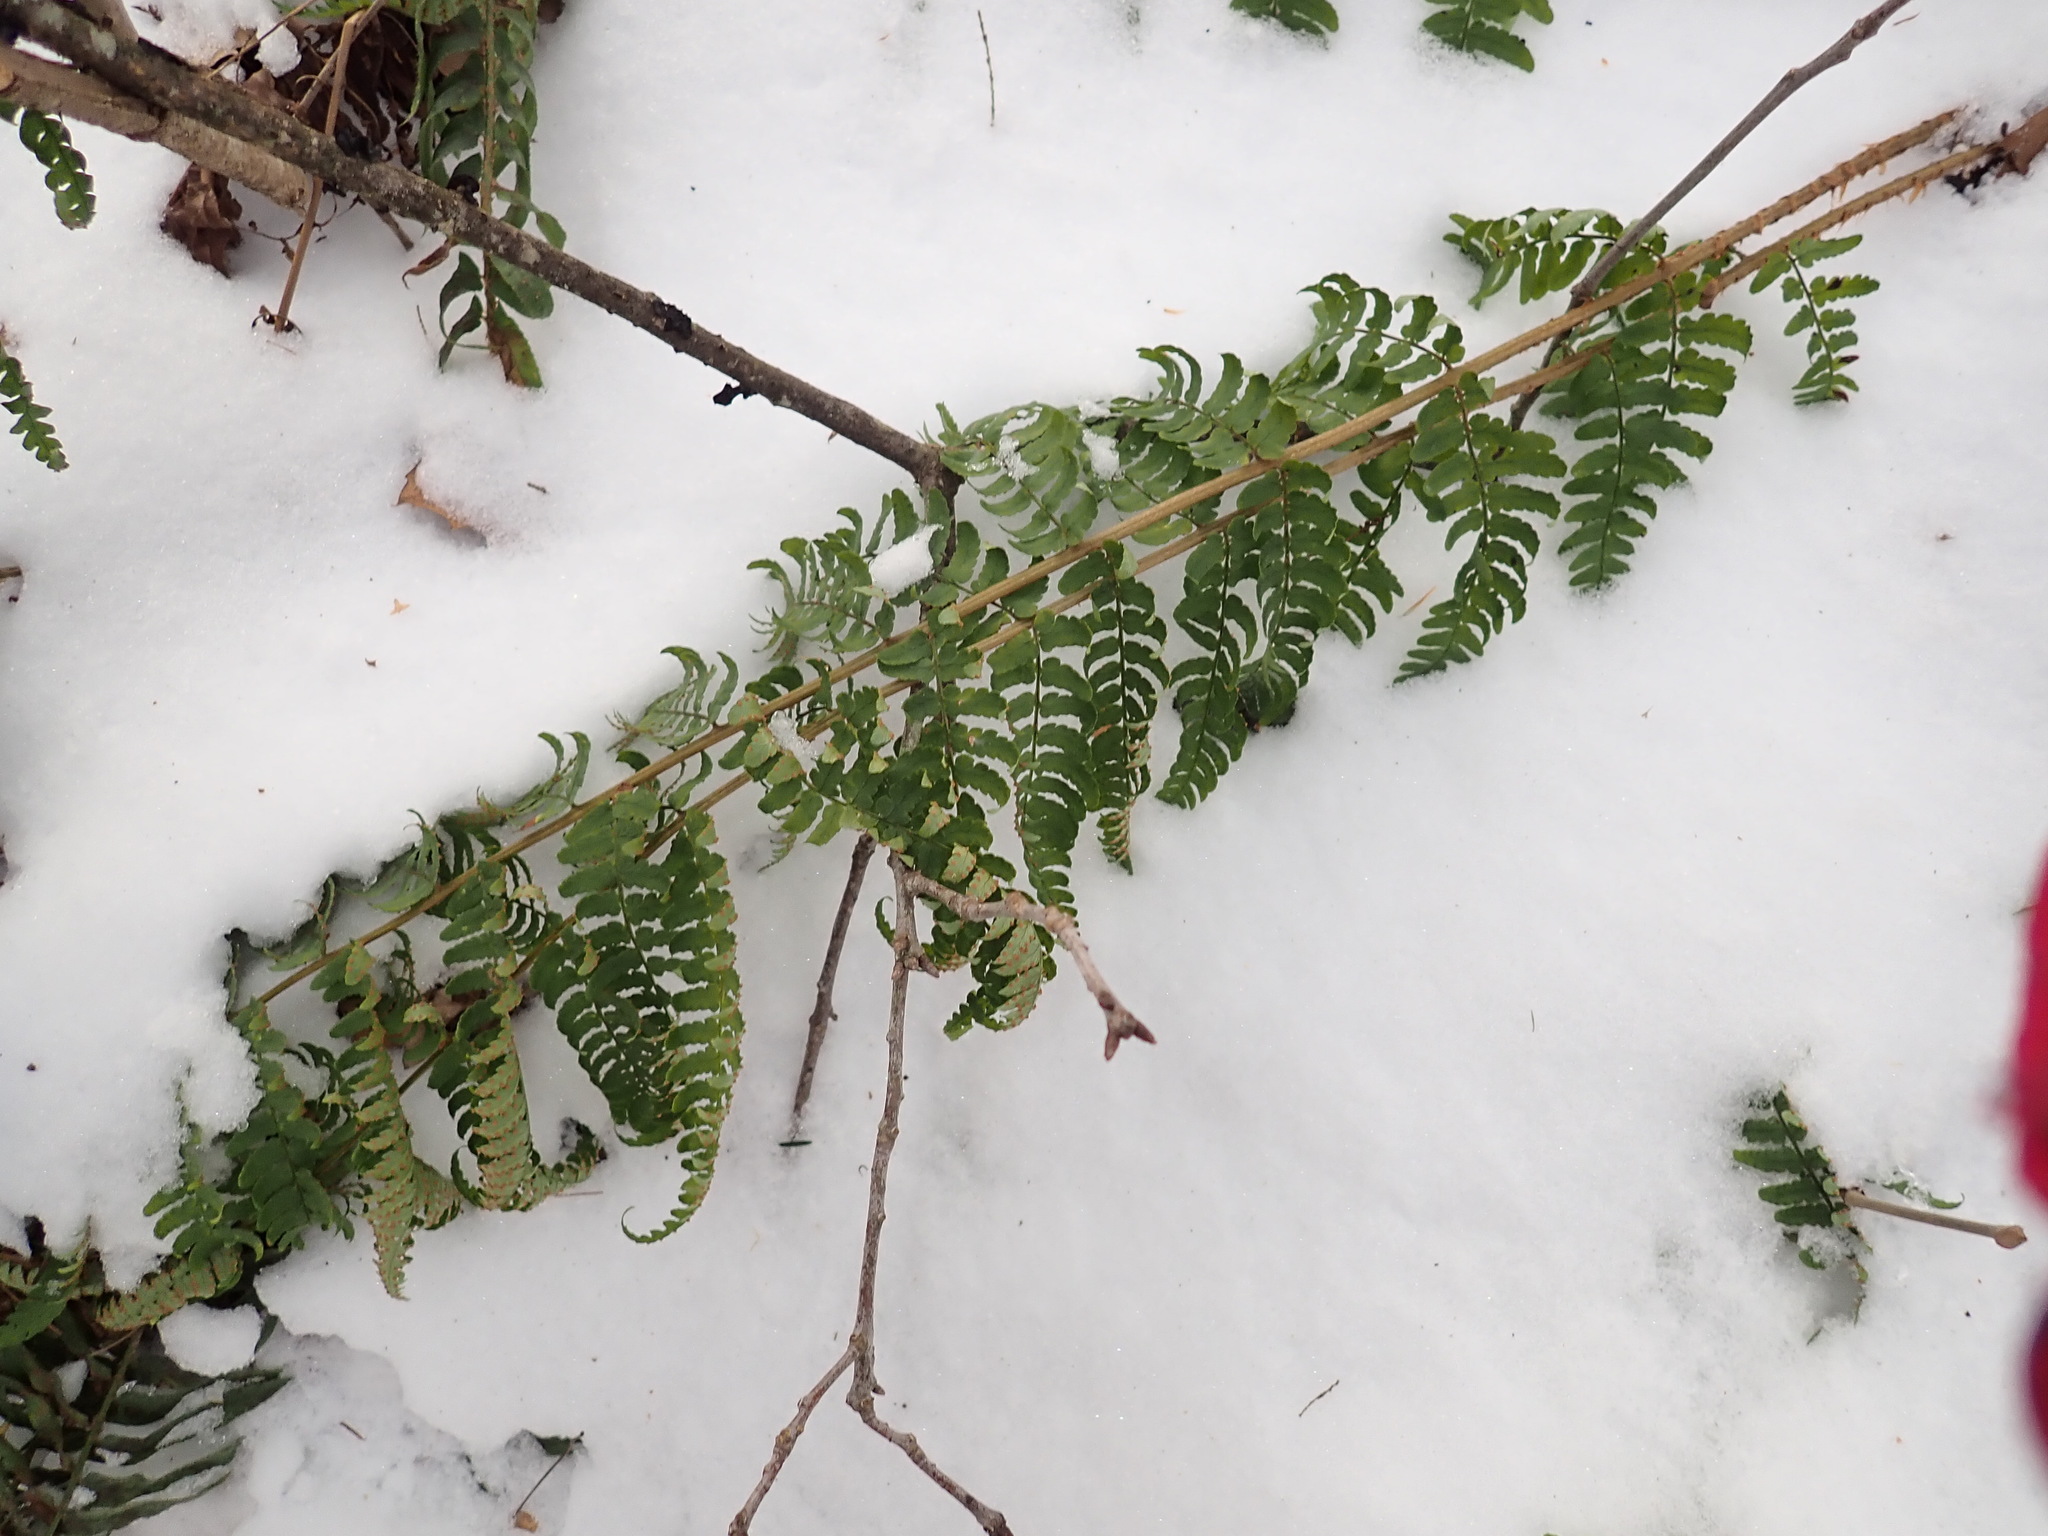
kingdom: Plantae
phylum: Tracheophyta
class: Polypodiopsida
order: Polypodiales
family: Dryopteridaceae
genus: Dryopteris
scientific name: Dryopteris marginalis
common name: Marginal wood fern
